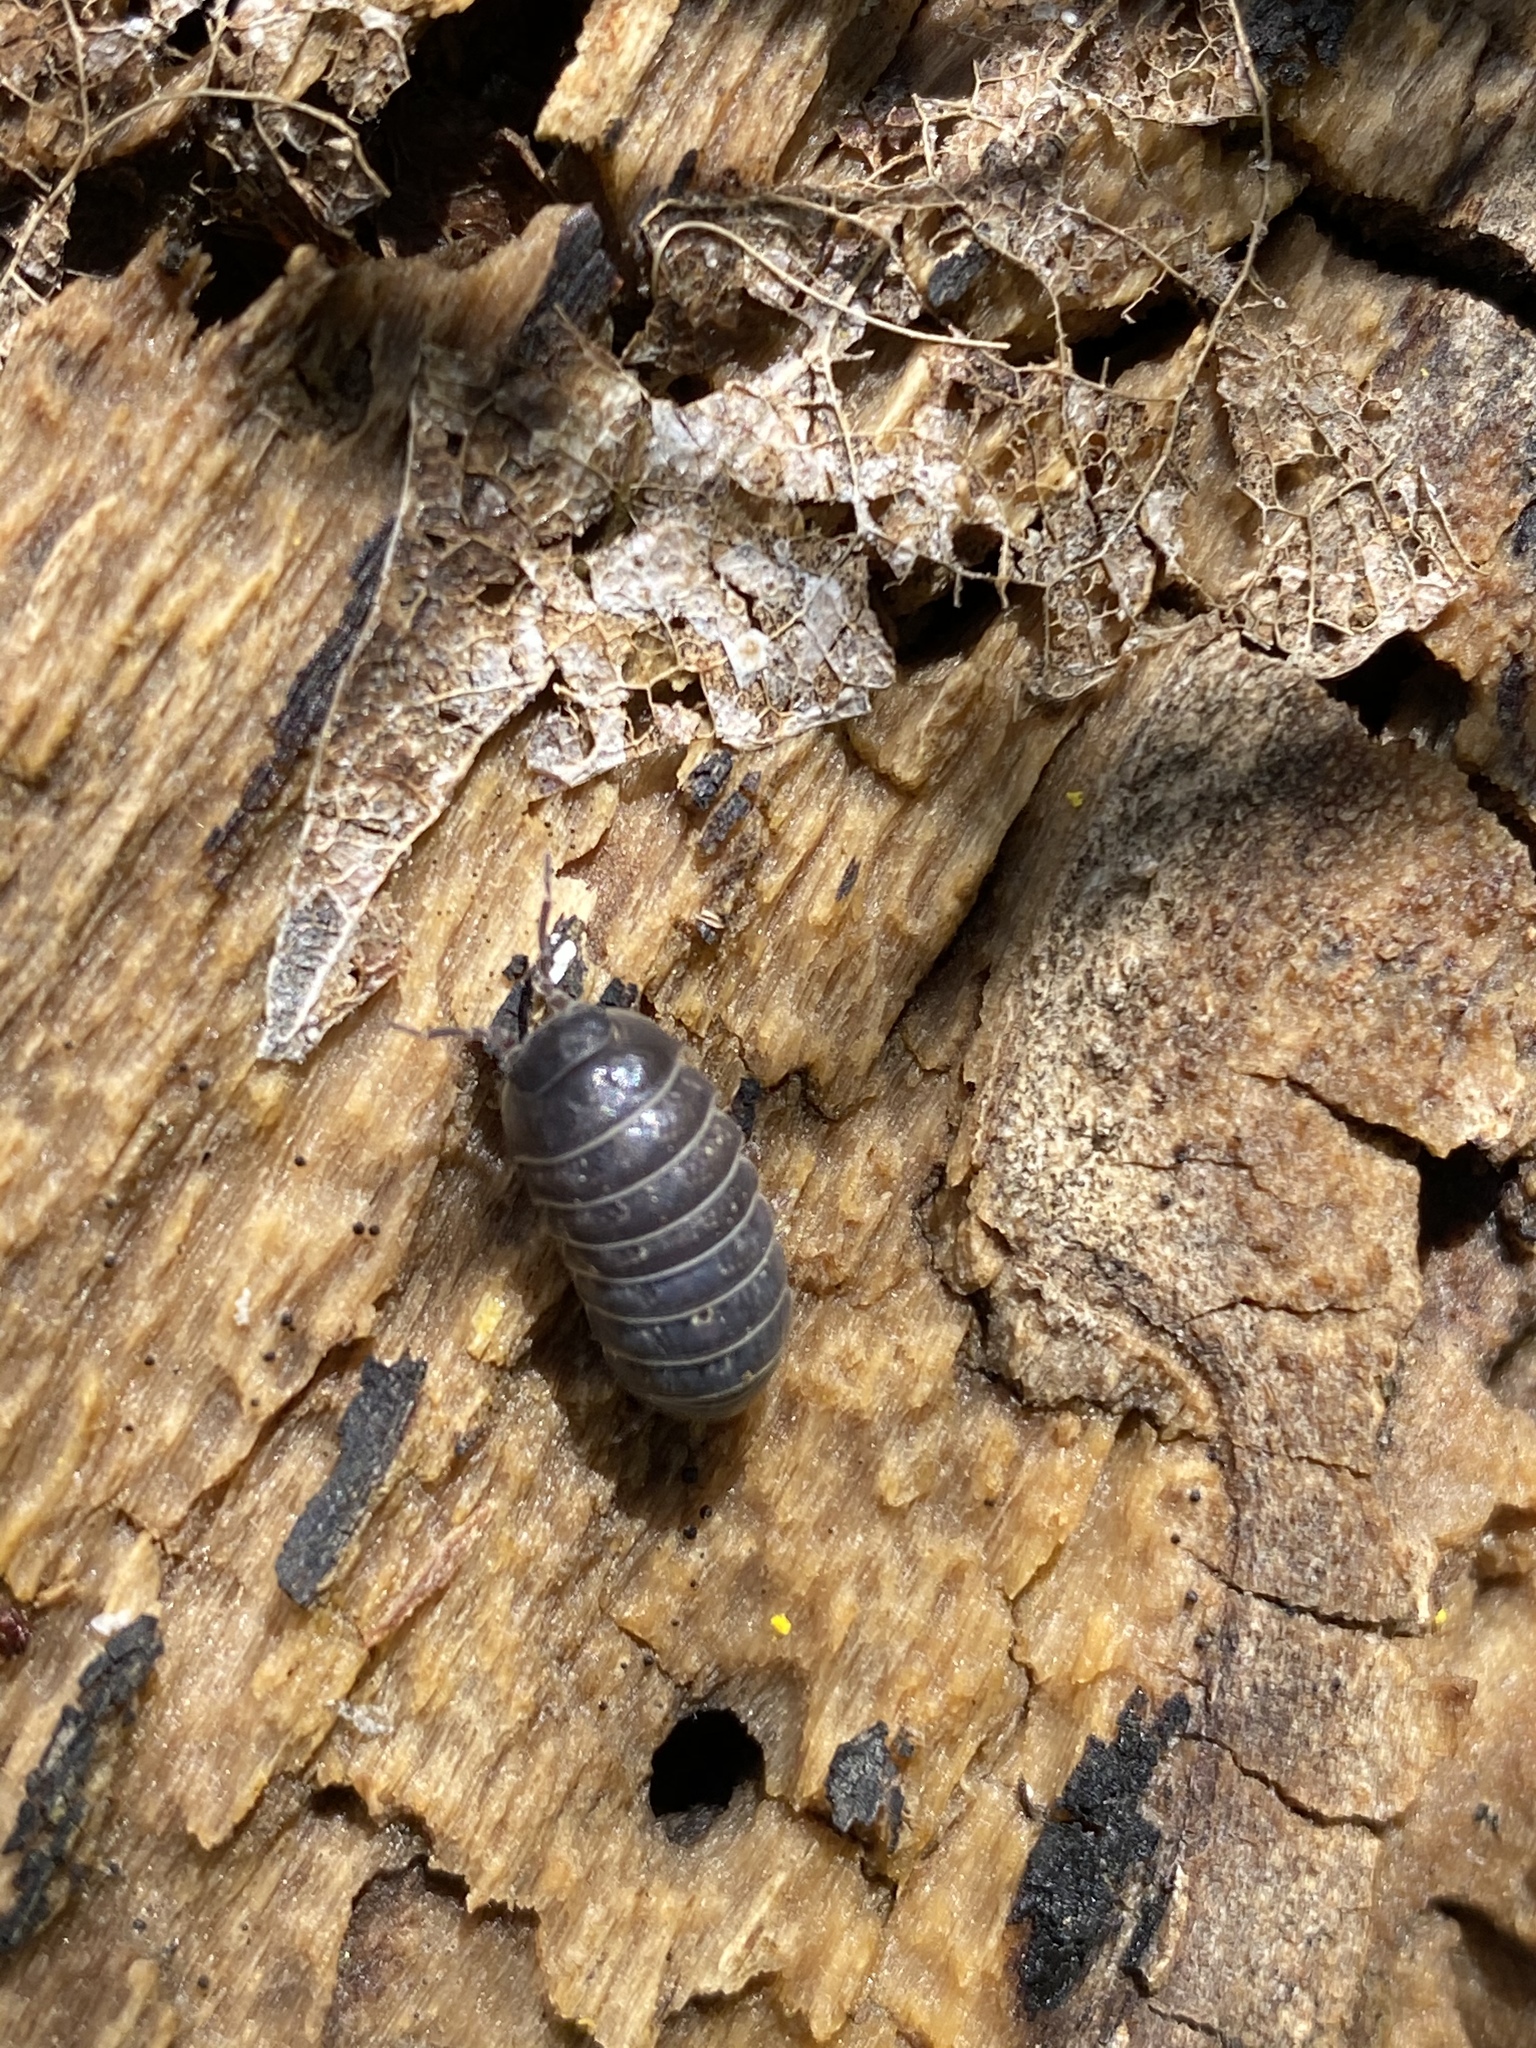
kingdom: Animalia
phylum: Arthropoda
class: Malacostraca
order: Isopoda
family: Armadillidiidae
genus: Armadillidium
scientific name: Armadillidium vulgare
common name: Common pill woodlouse
